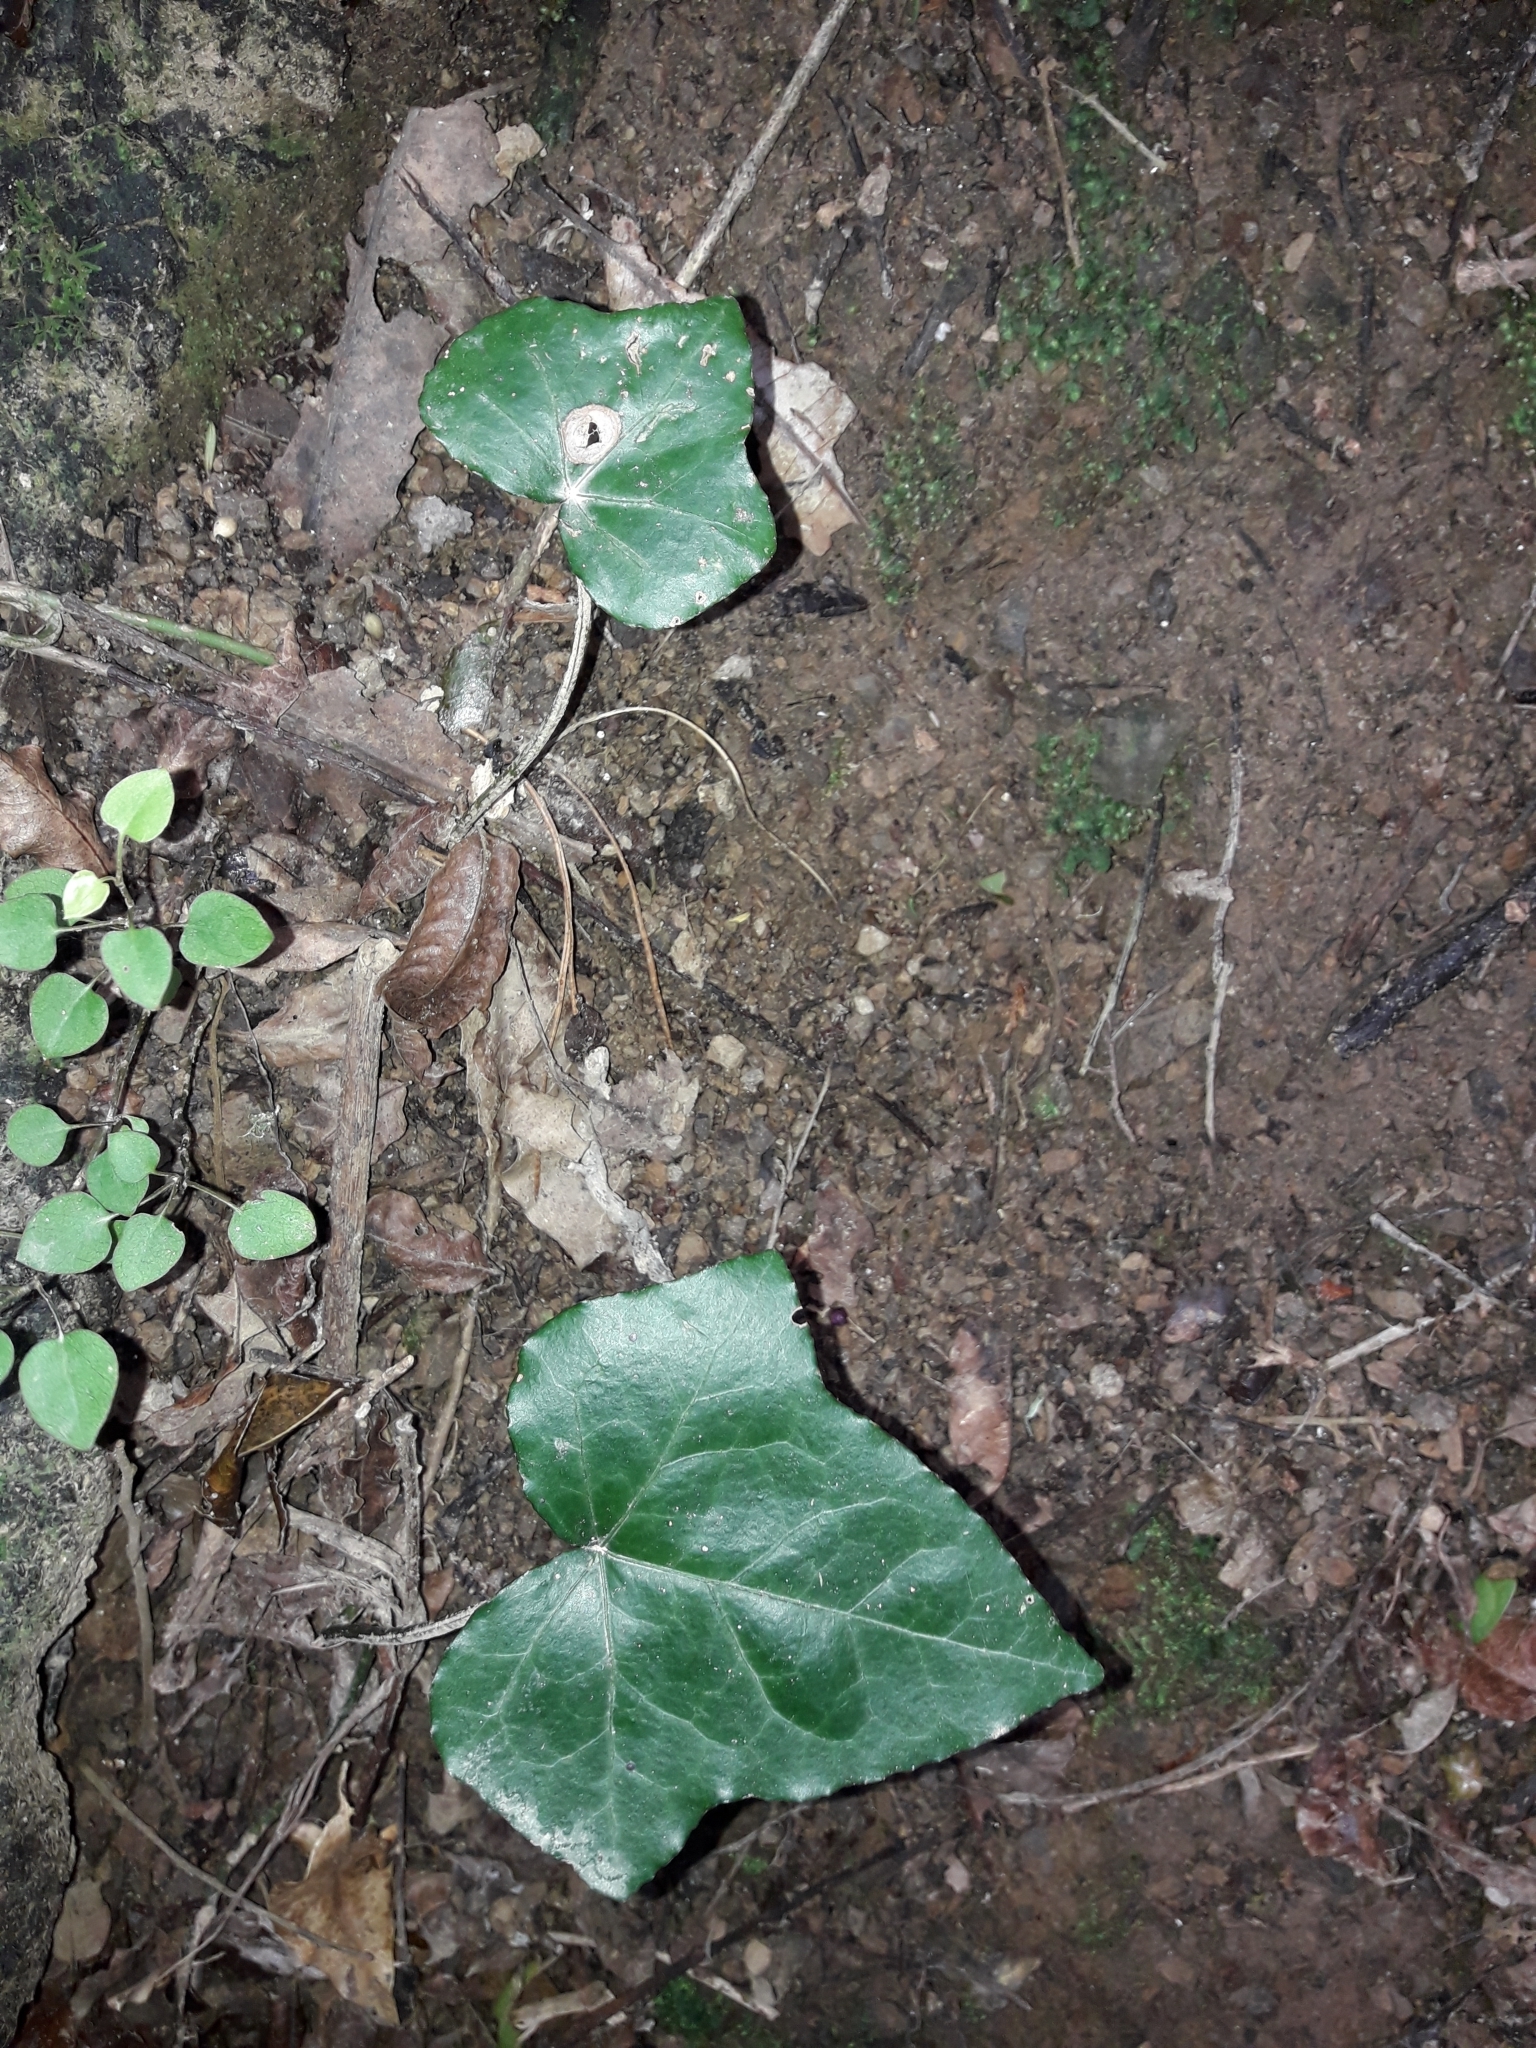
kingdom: Plantae
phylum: Tracheophyta
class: Magnoliopsida
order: Apiales
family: Araliaceae
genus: Hedera
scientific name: Hedera helix
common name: Ivy
